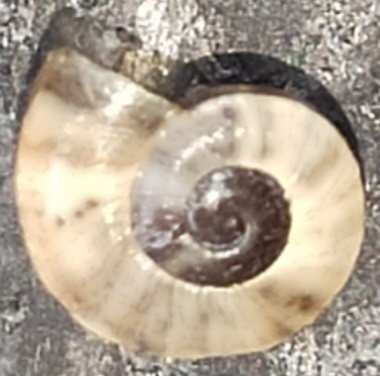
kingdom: Animalia
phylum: Mollusca
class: Gastropoda
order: Stylommatophora
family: Helicidae
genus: Theba
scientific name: Theba pisana
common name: White snail
